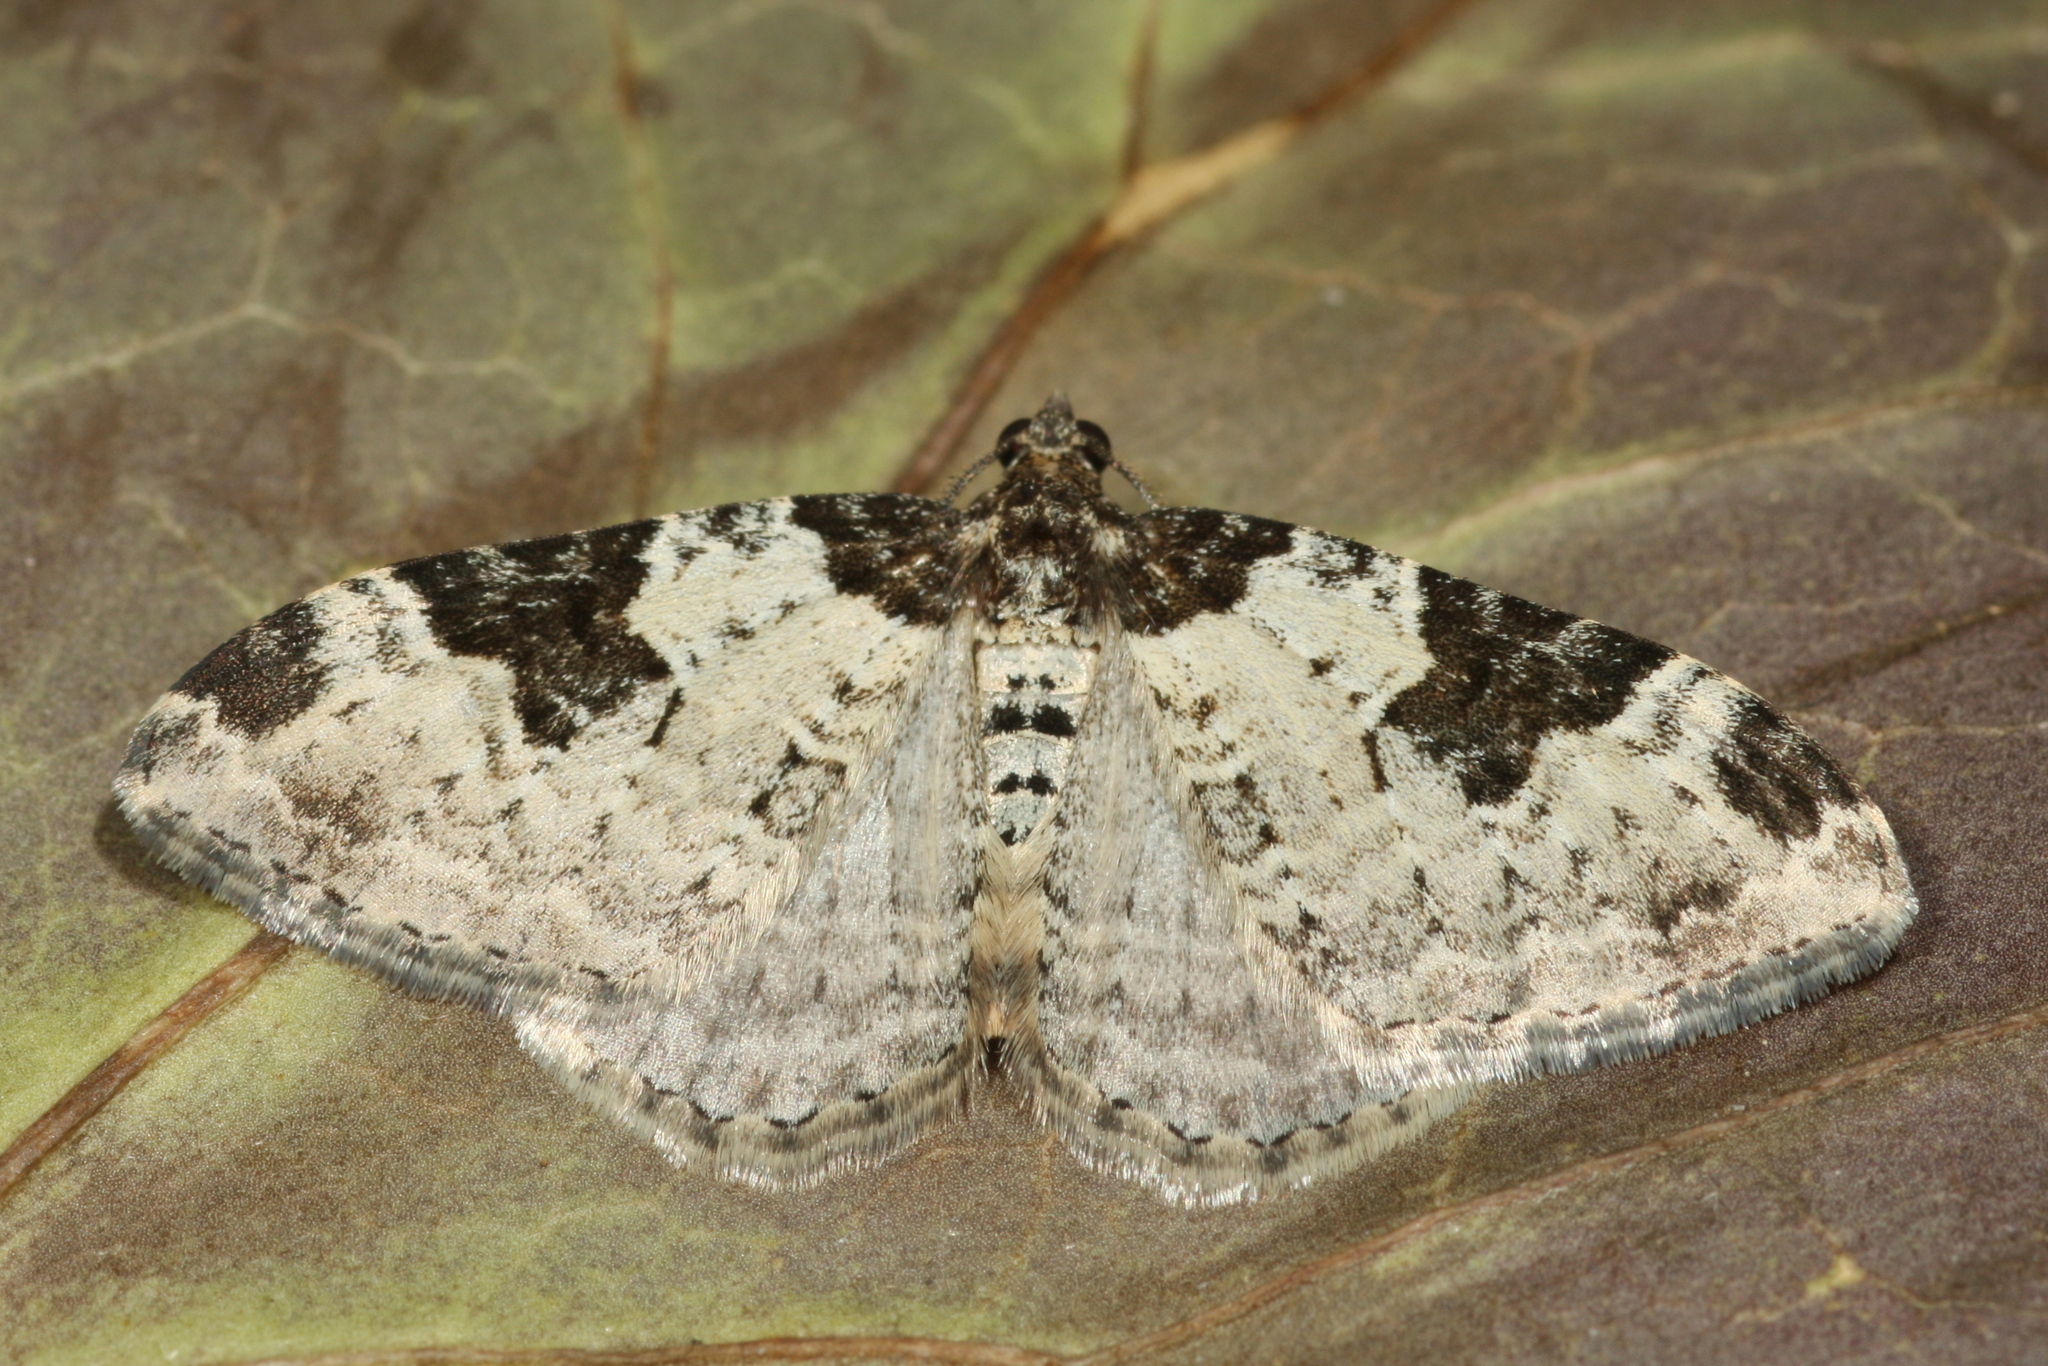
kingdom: Animalia
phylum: Arthropoda
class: Insecta
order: Lepidoptera
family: Geometridae
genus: Xanthorhoe
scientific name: Xanthorhoe fluctuata
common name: Garden carpet
